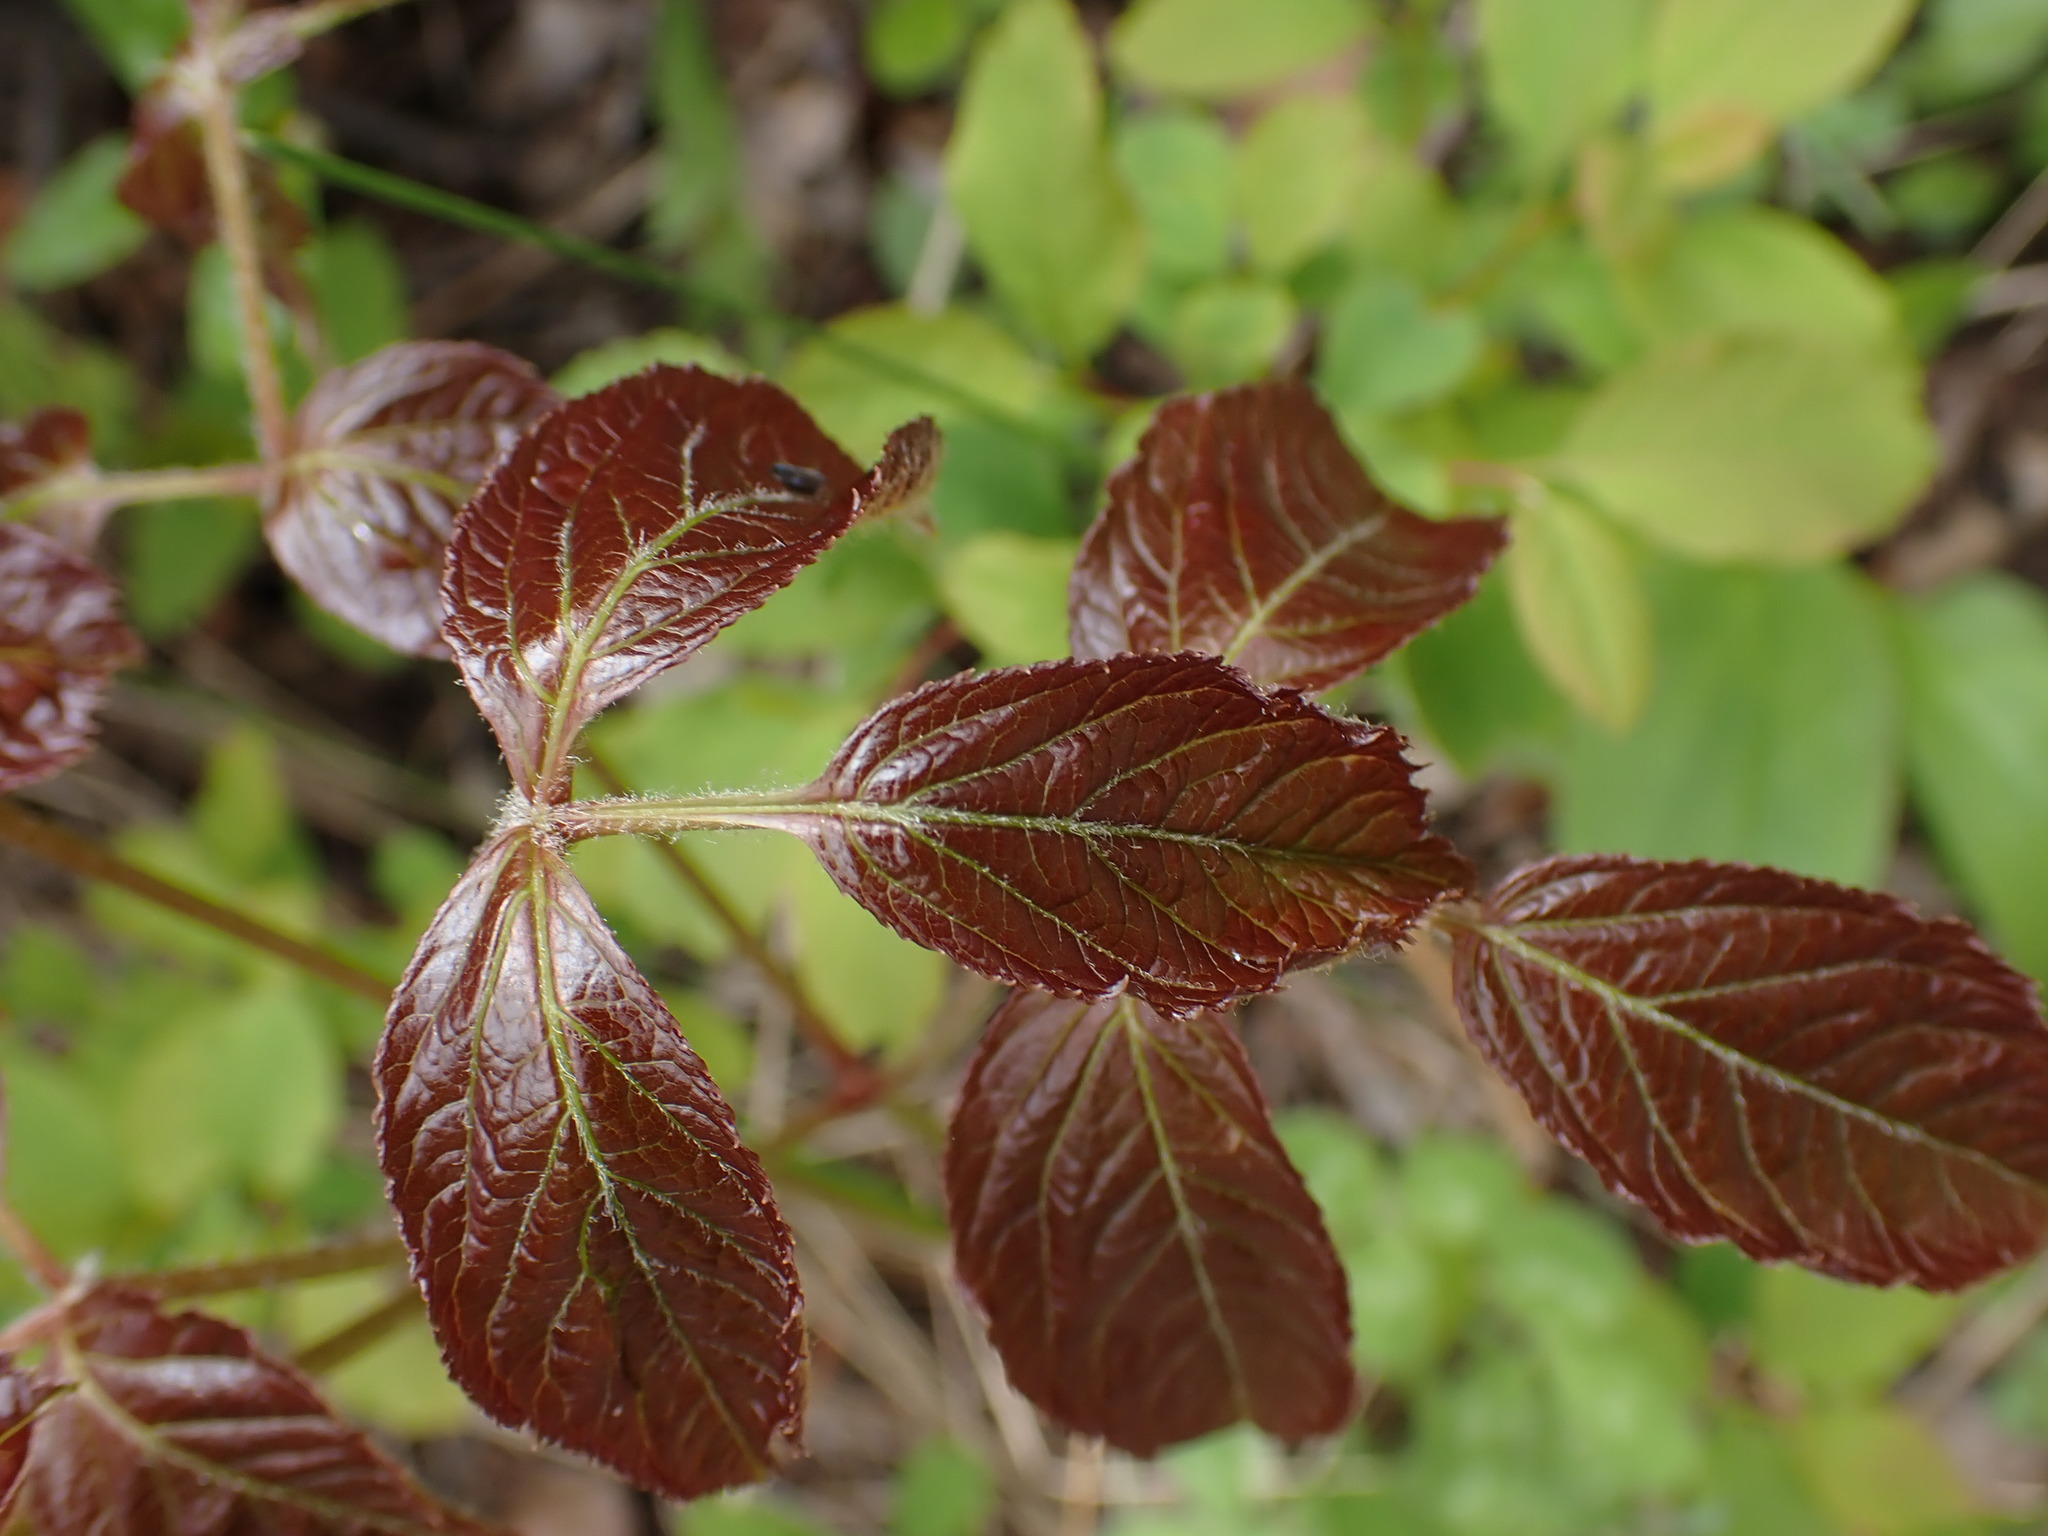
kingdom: Plantae
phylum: Tracheophyta
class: Magnoliopsida
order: Apiales
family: Araliaceae
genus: Aralia
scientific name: Aralia nudicaulis
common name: Wild sarsaparilla
